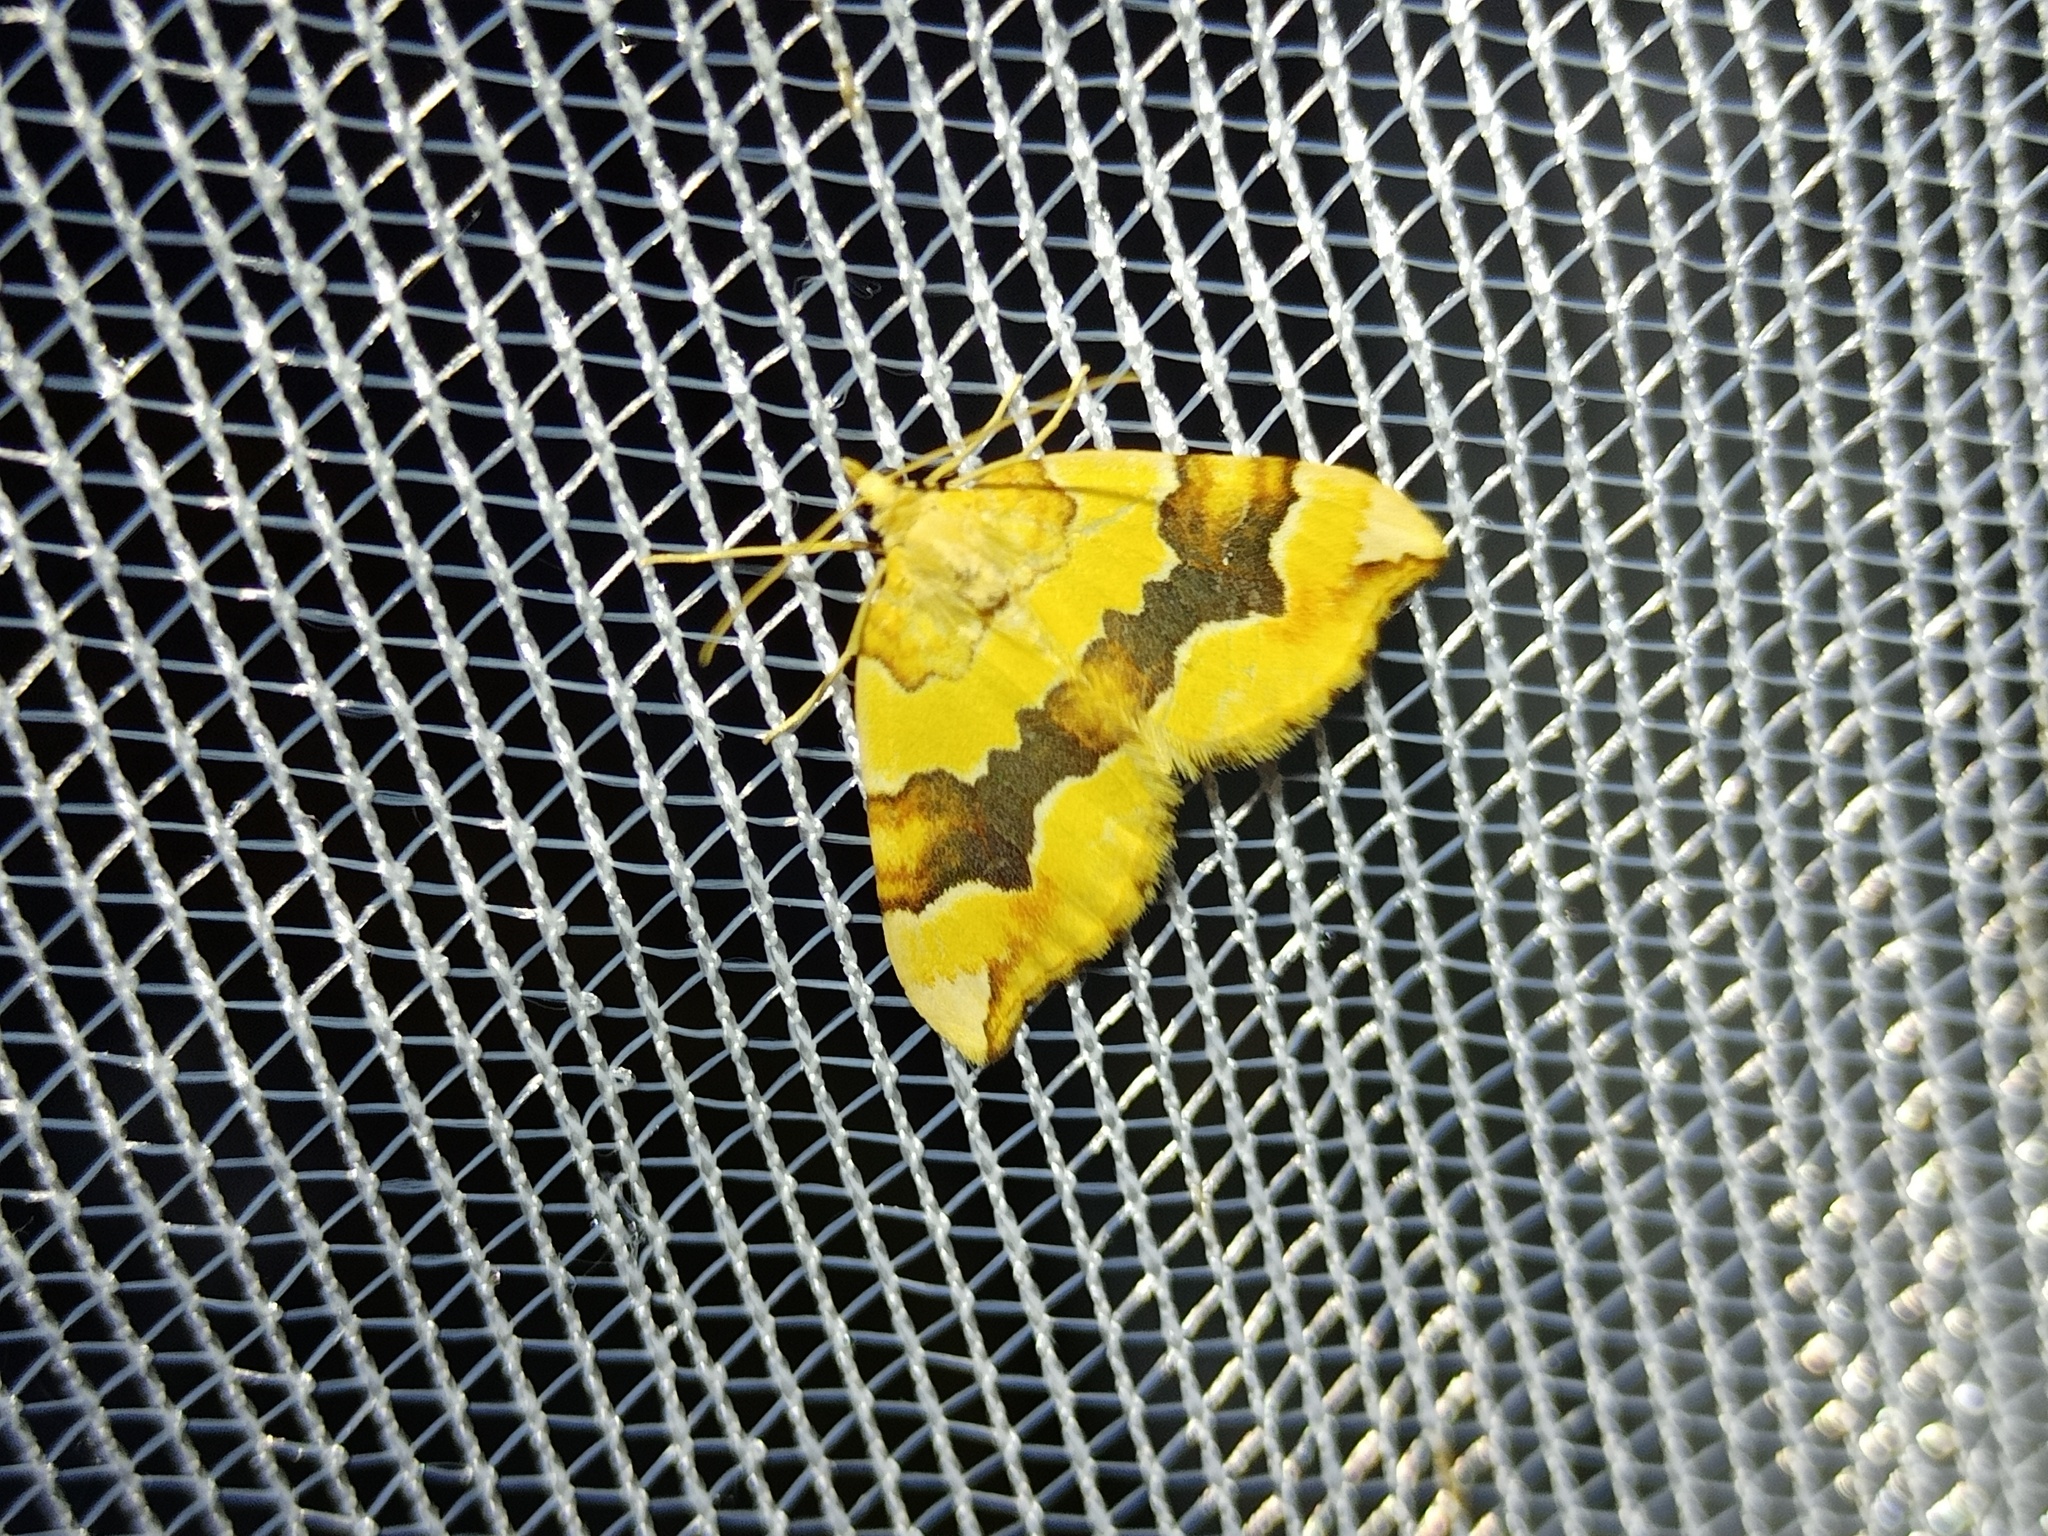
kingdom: Animalia
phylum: Arthropoda
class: Insecta
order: Lepidoptera
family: Geometridae
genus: Cidaria
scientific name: Cidaria fulvata
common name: Barred yellow
